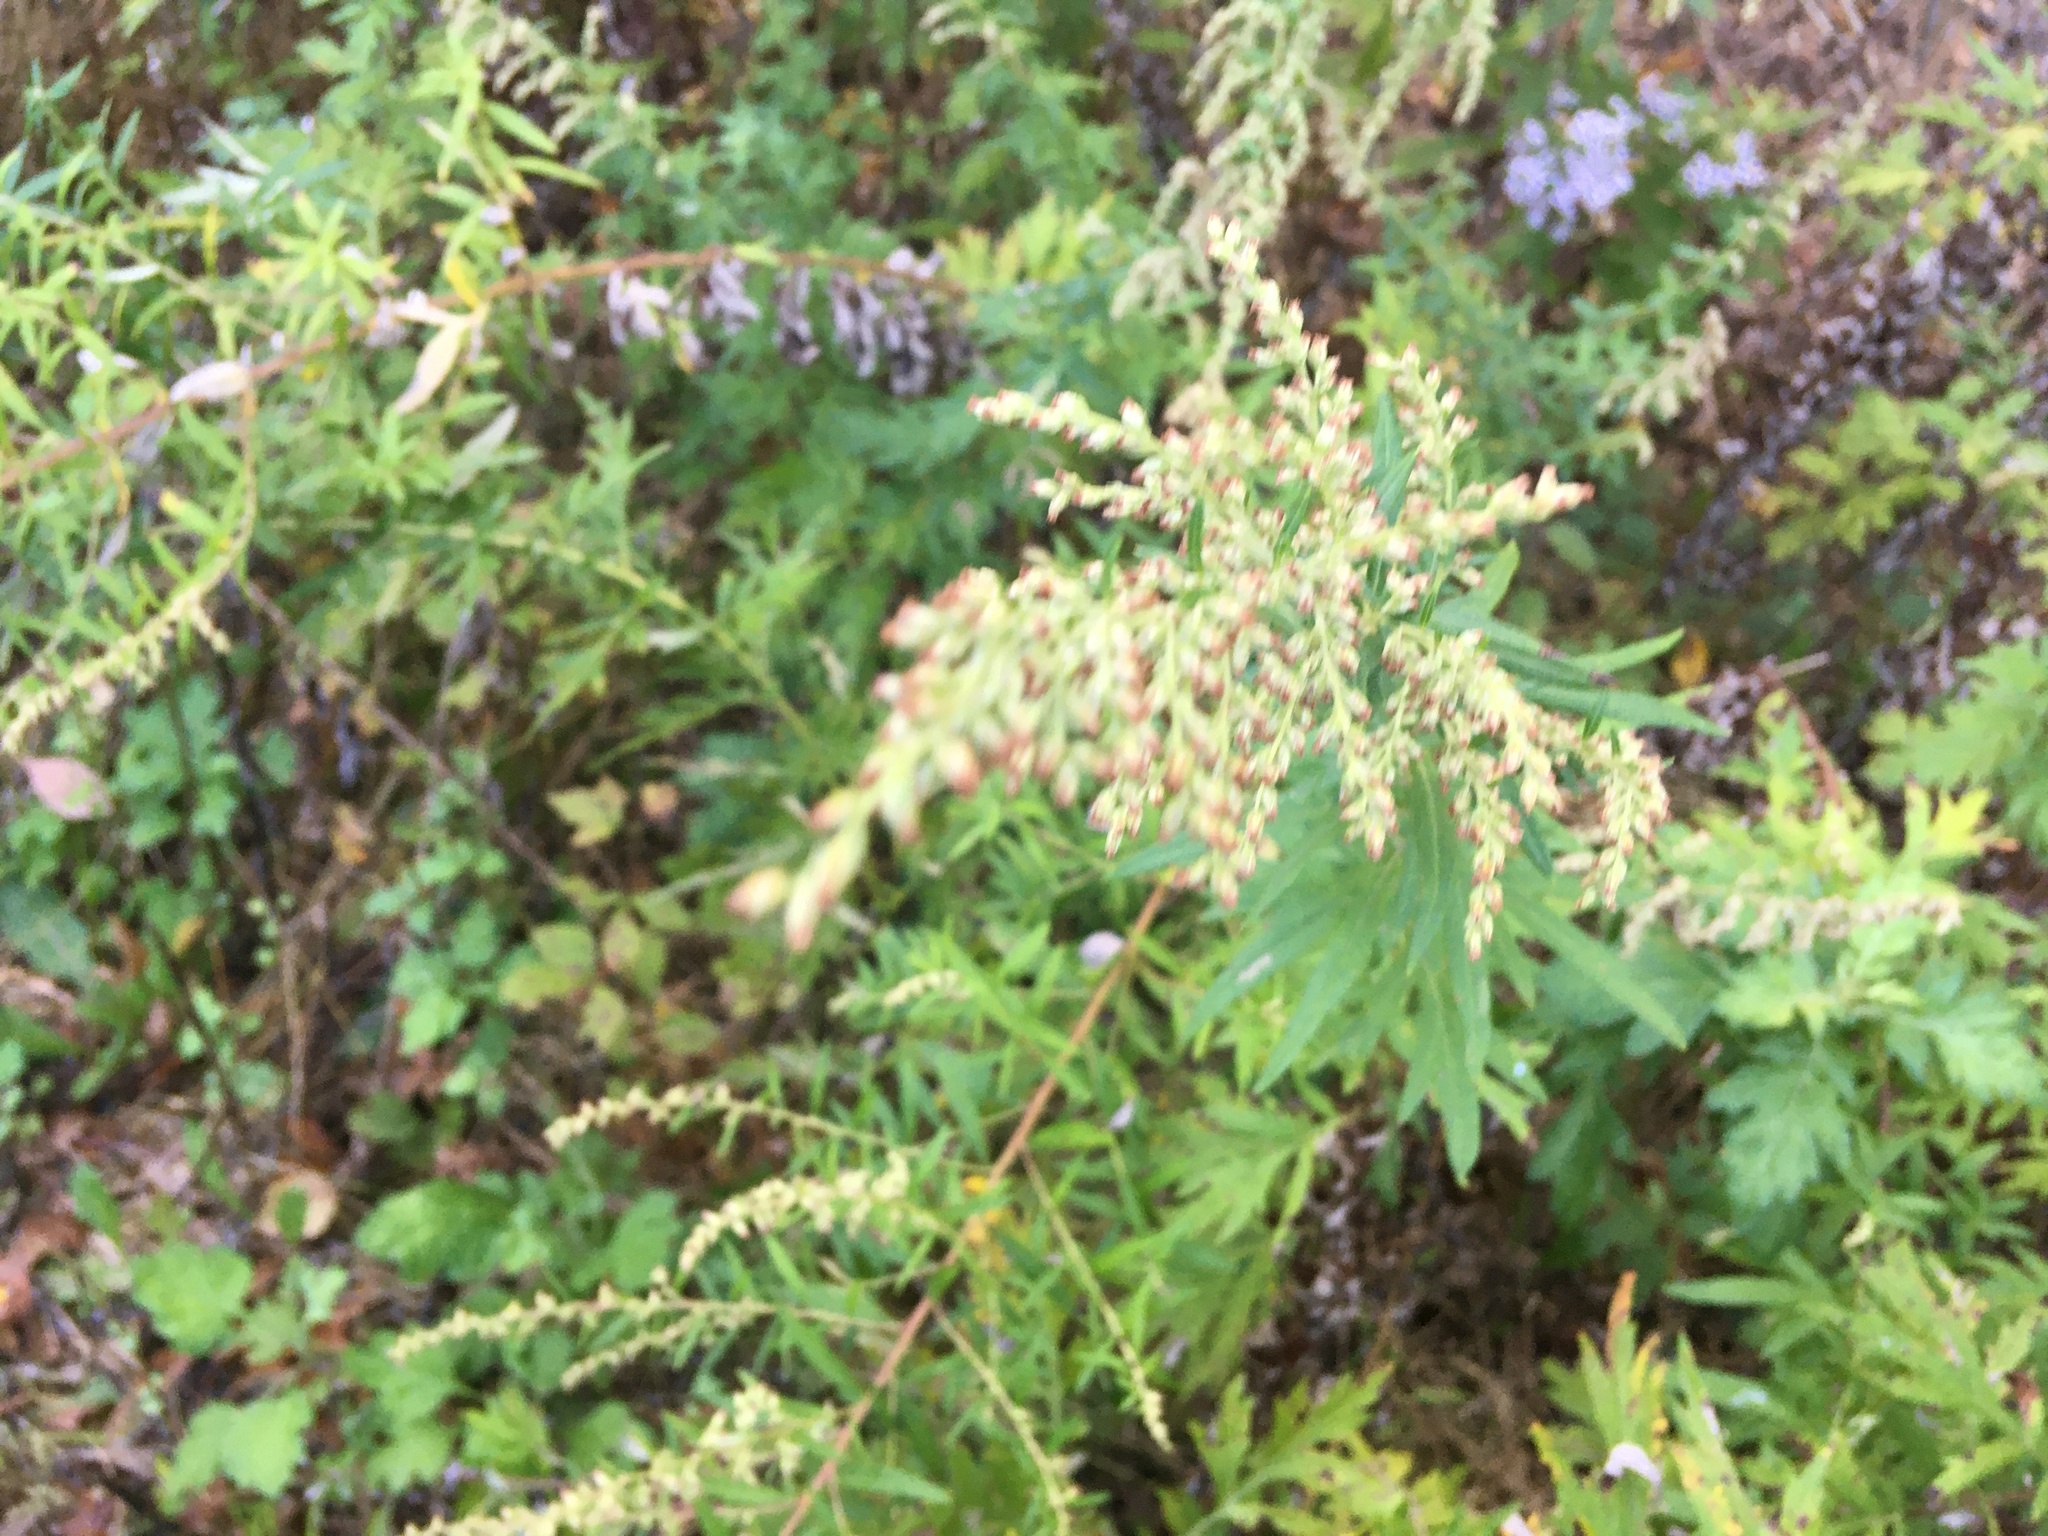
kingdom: Plantae
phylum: Tracheophyta
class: Magnoliopsida
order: Asterales
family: Asteraceae
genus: Artemisia
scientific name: Artemisia vulgaris
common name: Mugwort
